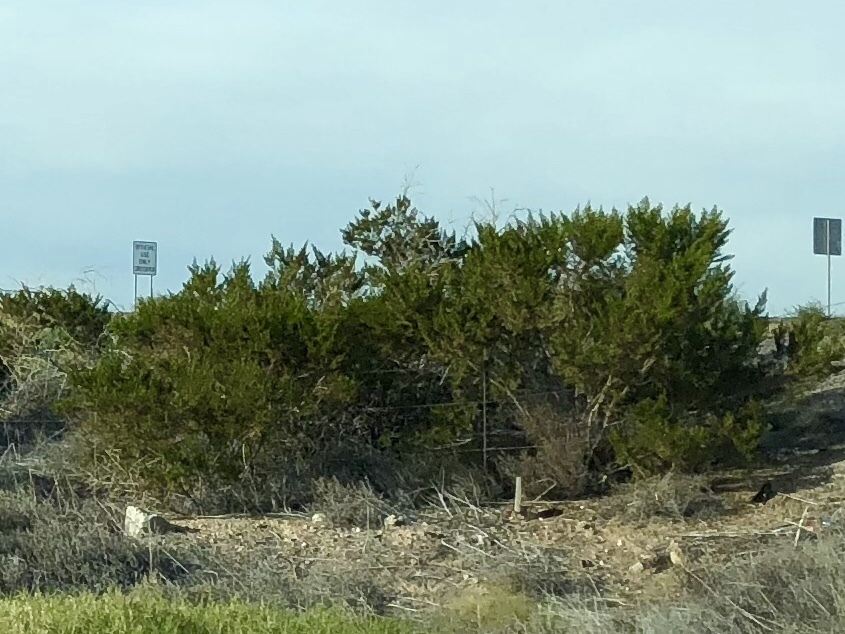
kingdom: Plantae
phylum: Tracheophyta
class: Magnoliopsida
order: Zygophyllales
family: Zygophyllaceae
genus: Larrea
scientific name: Larrea tridentata
